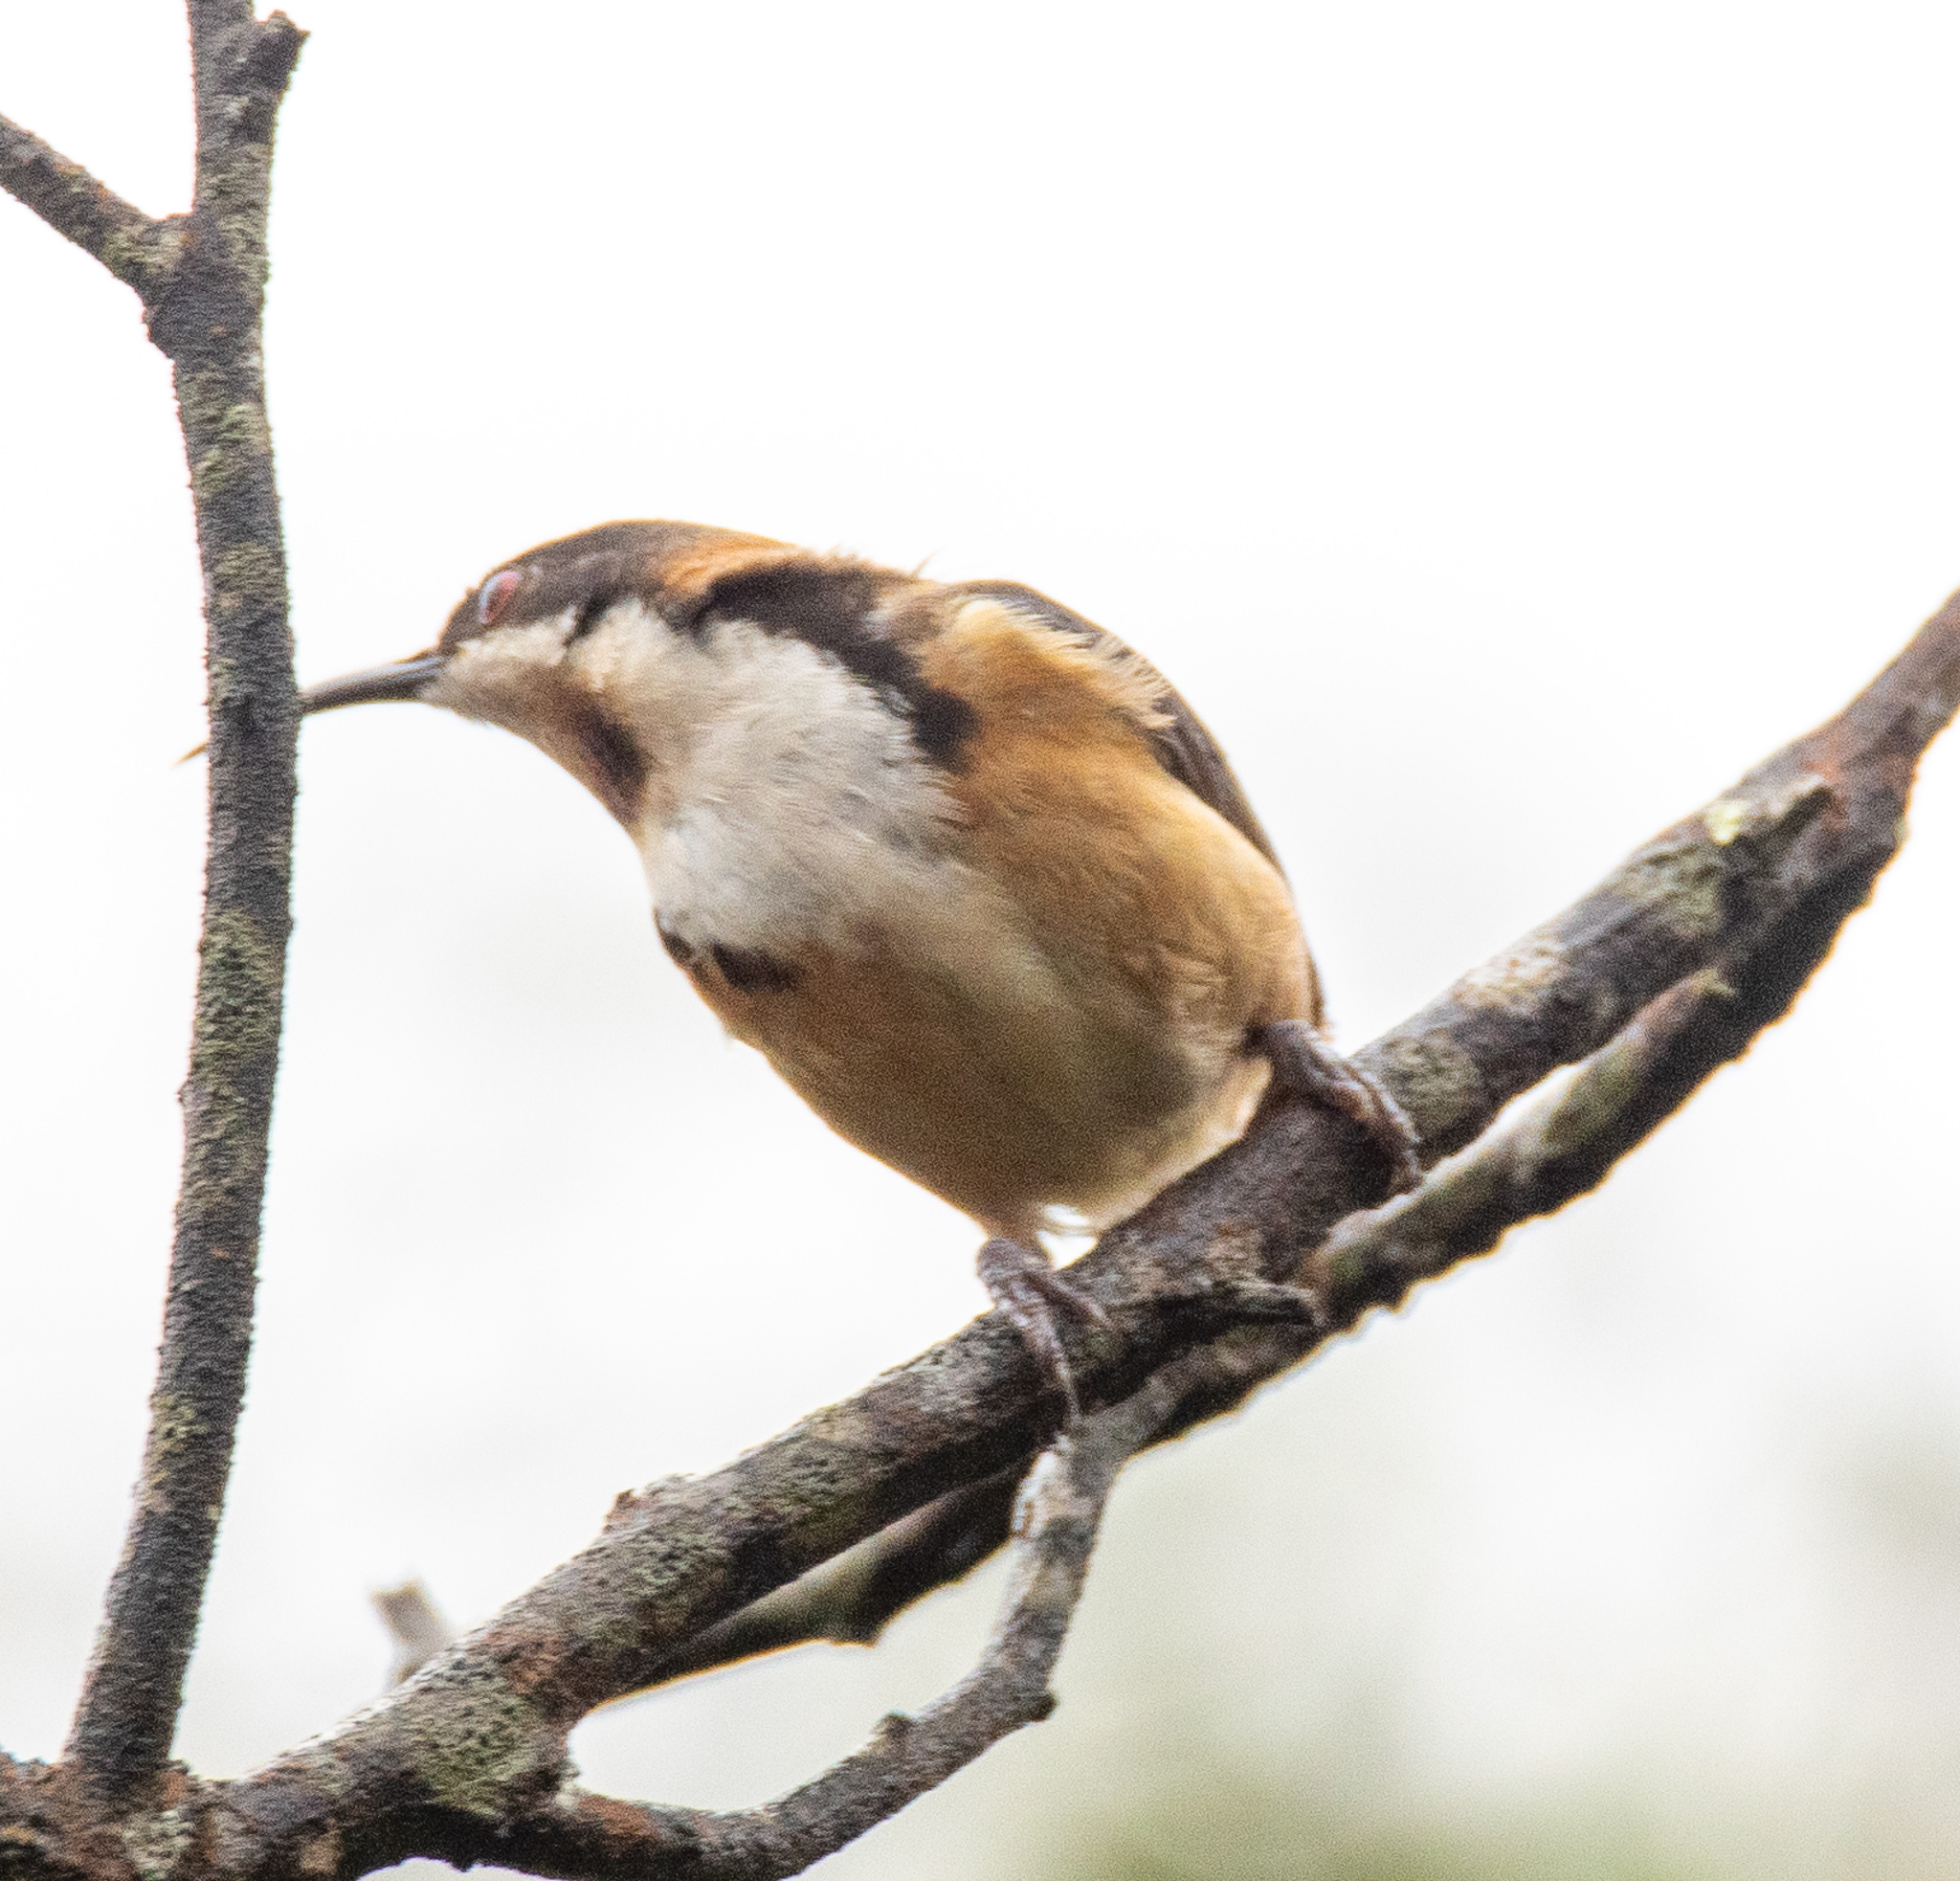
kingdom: Animalia
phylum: Chordata
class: Aves
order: Passeriformes
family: Meliphagidae
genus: Acanthorhynchus
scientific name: Acanthorhynchus tenuirostris
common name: Eastern spinebill
